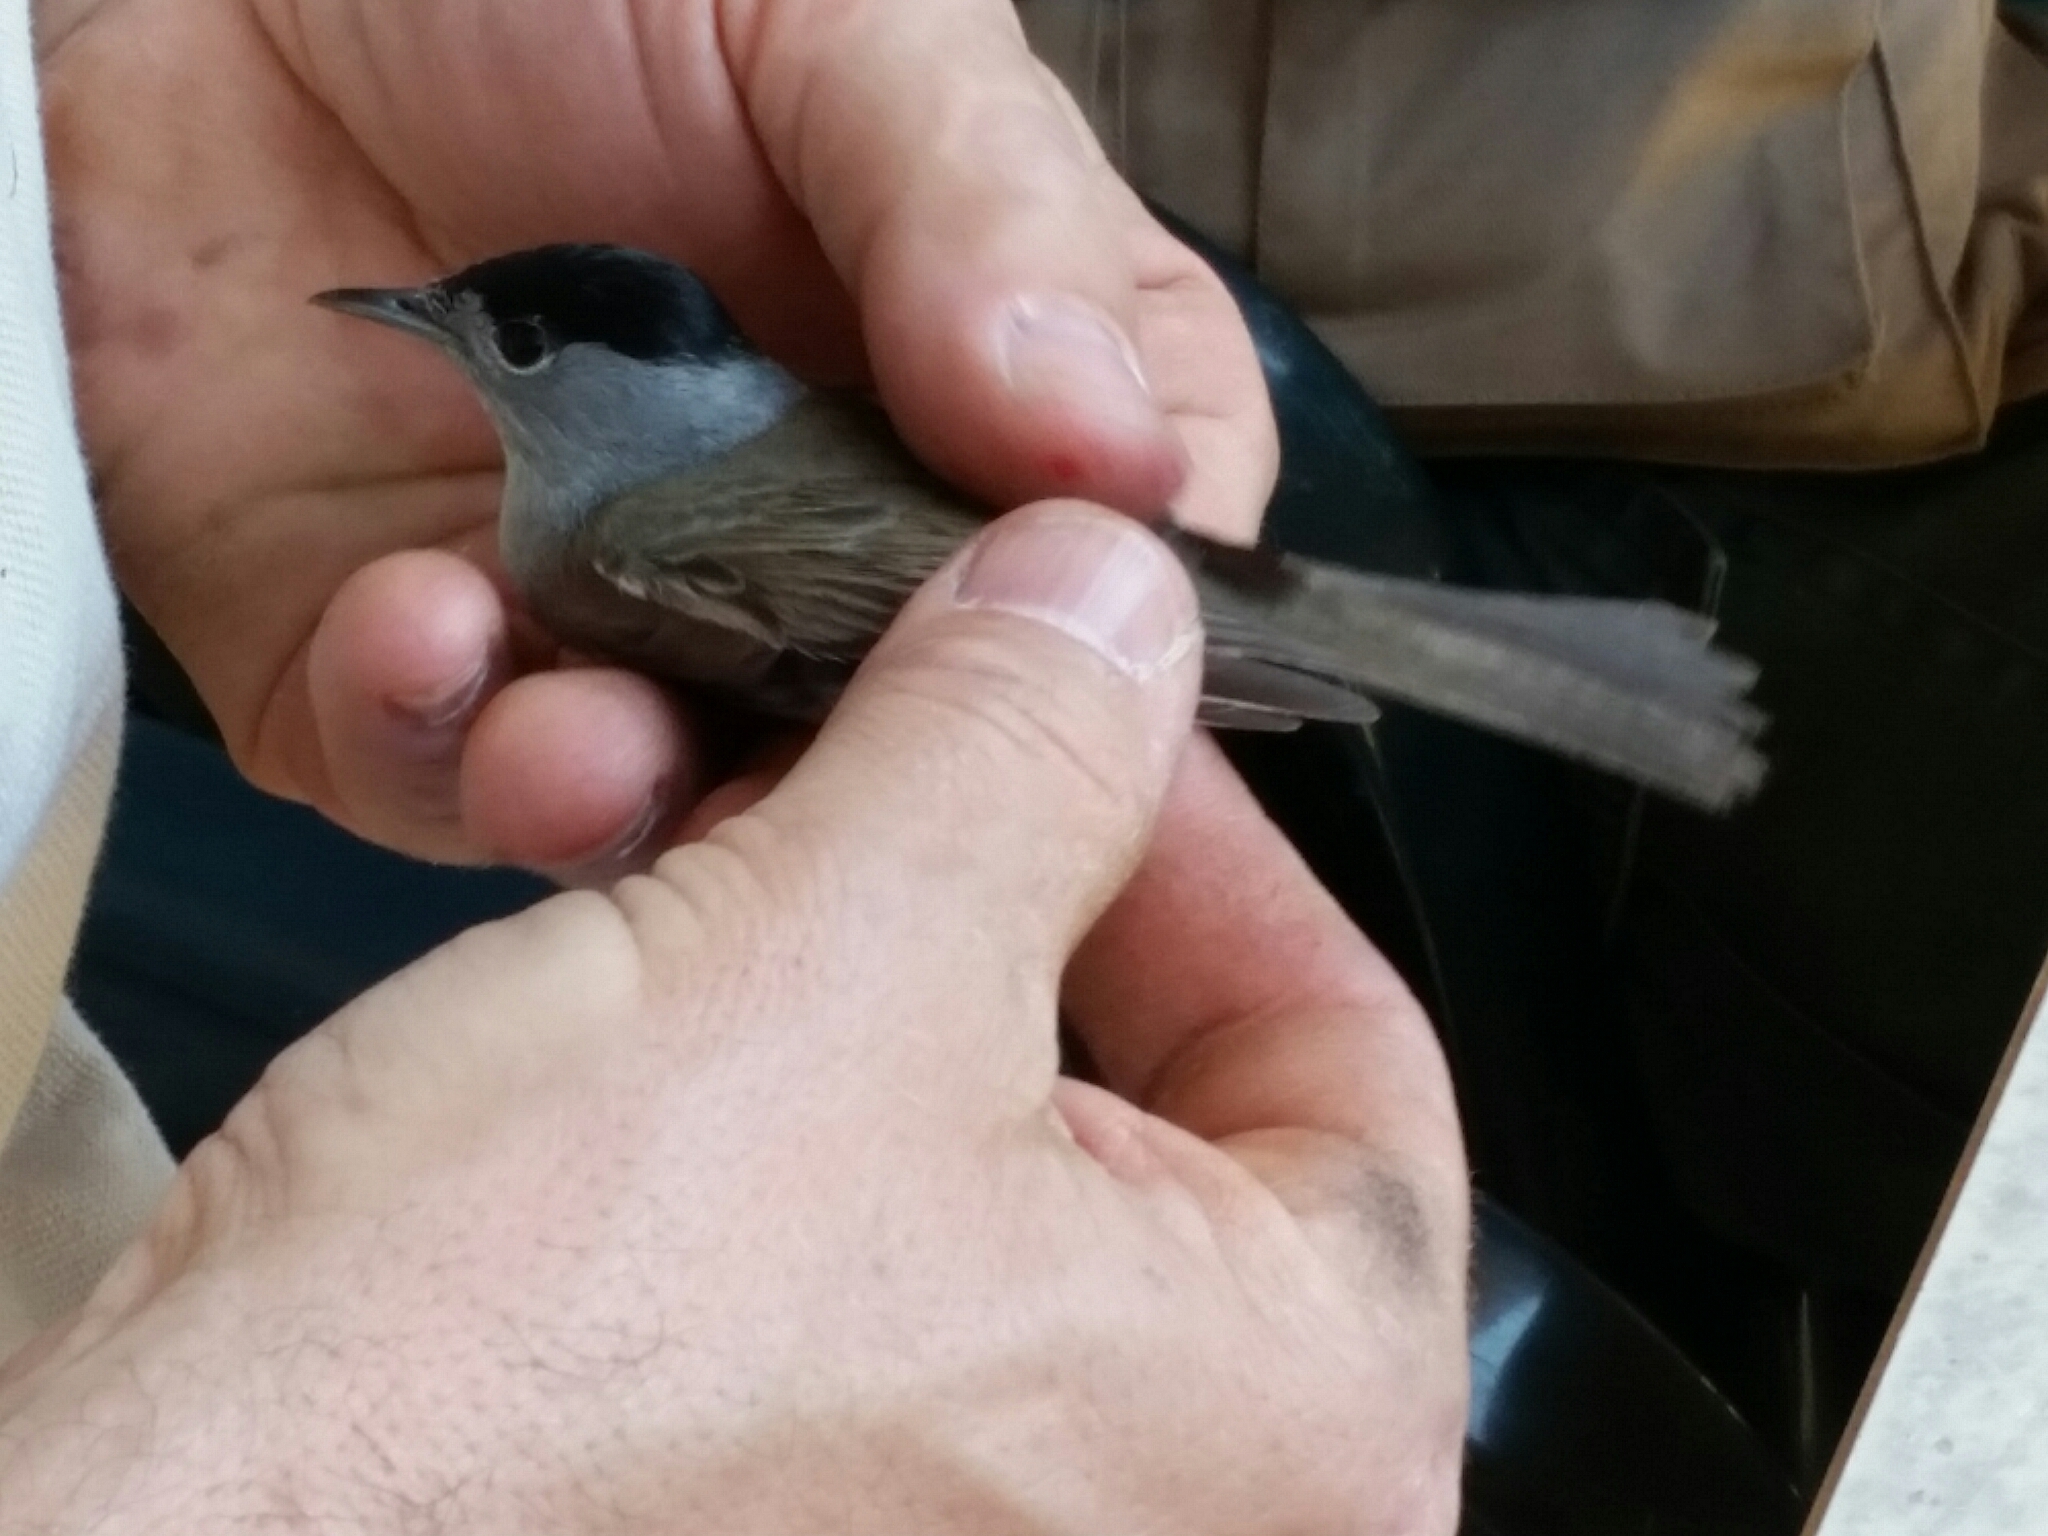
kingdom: Animalia
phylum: Chordata
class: Aves
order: Passeriformes
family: Sylviidae
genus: Sylvia
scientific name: Sylvia atricapilla
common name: Eurasian blackcap
